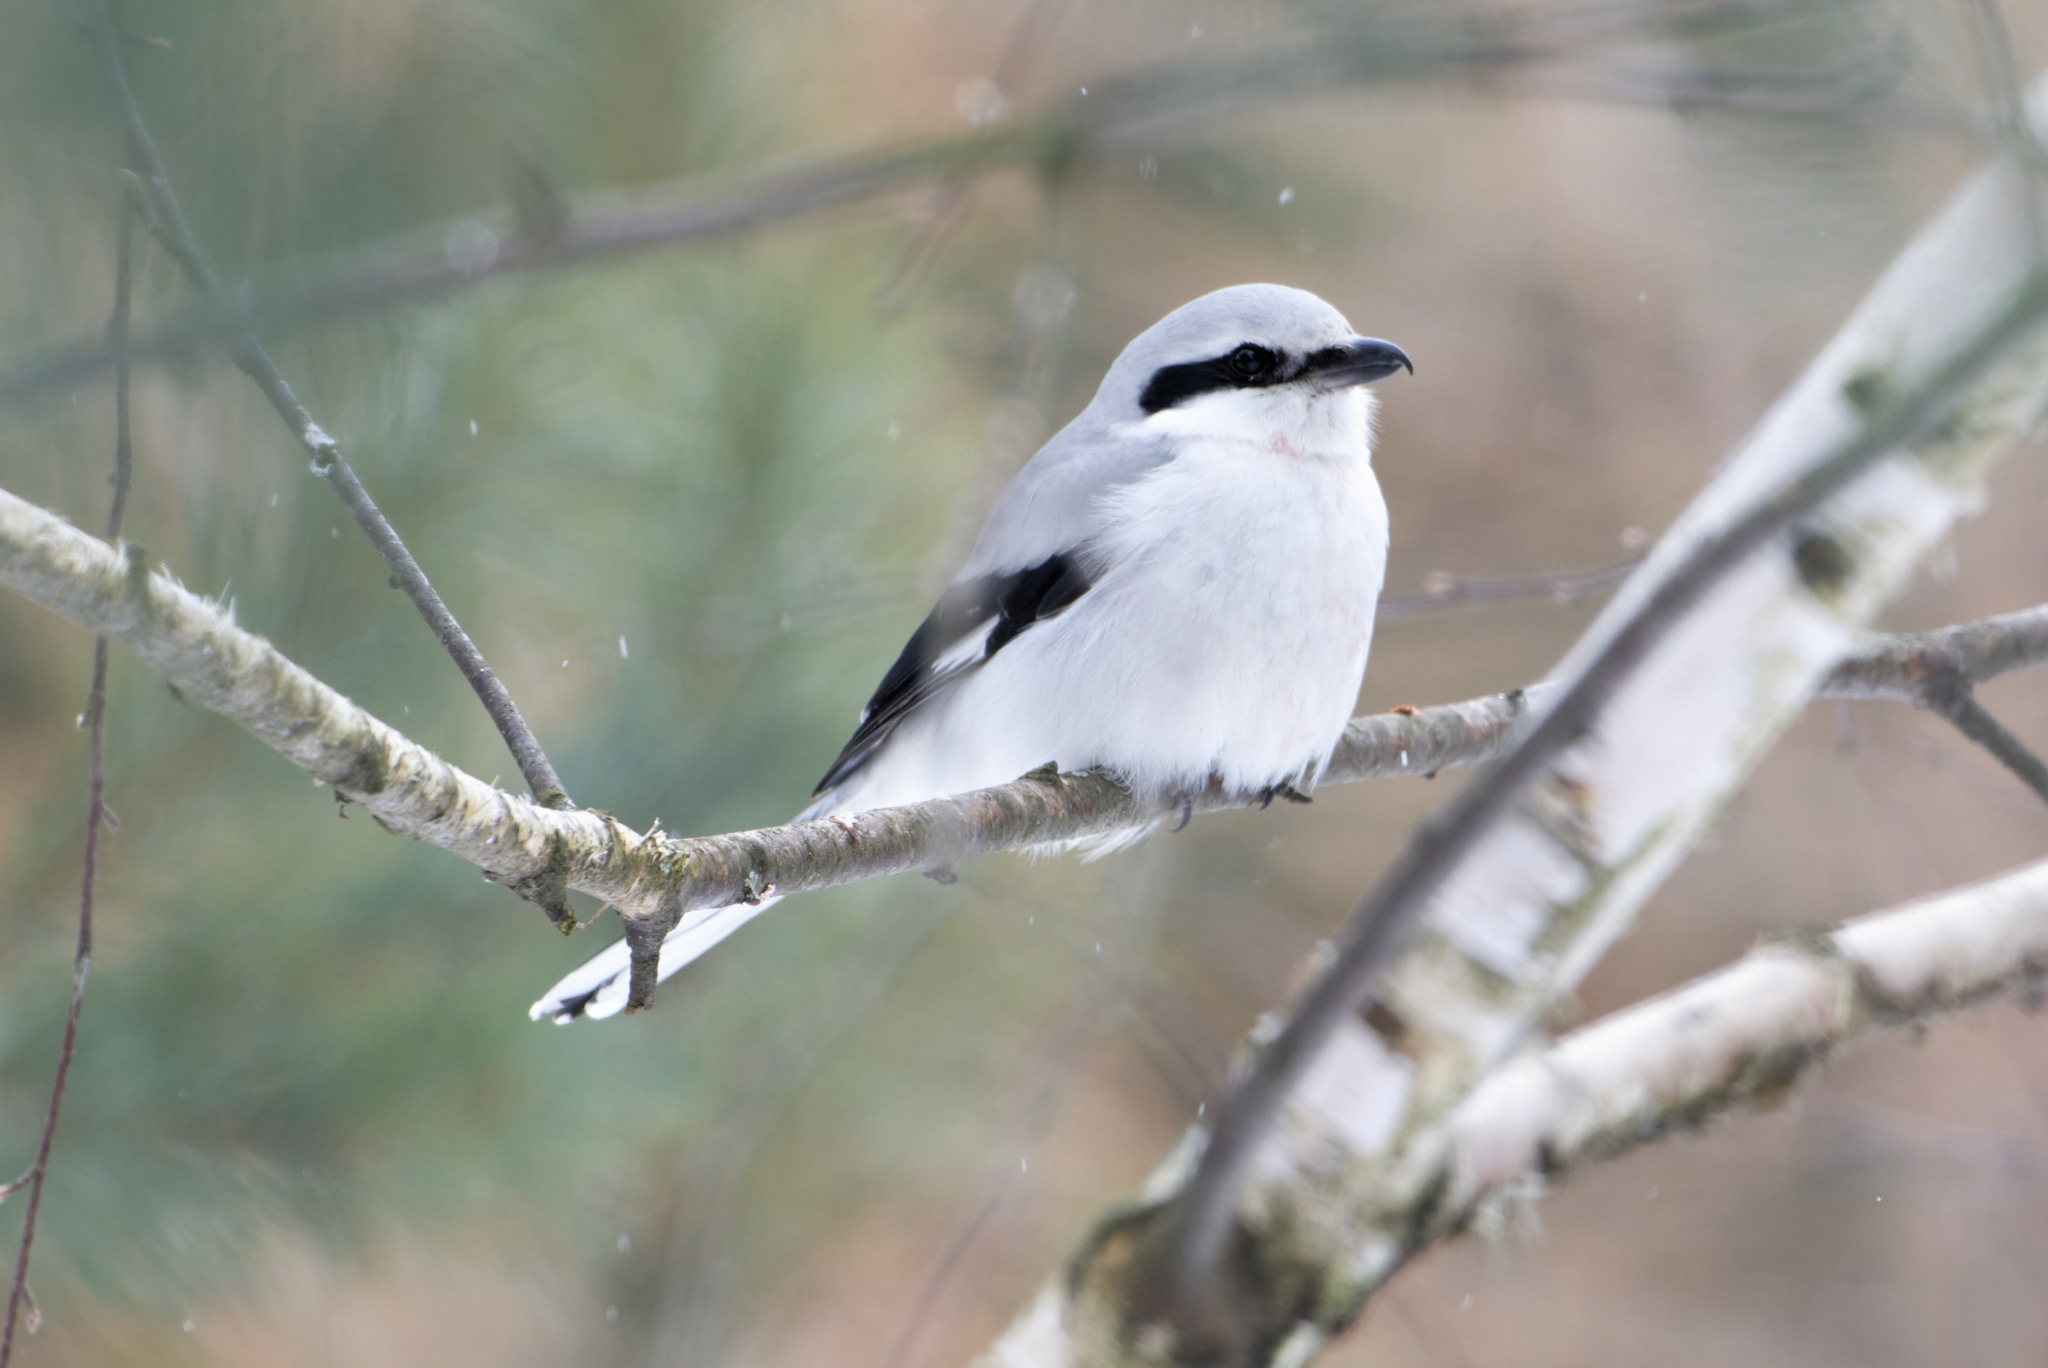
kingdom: Animalia
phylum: Chordata
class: Aves
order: Passeriformes
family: Laniidae
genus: Lanius
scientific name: Lanius excubitor
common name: Great grey shrike
